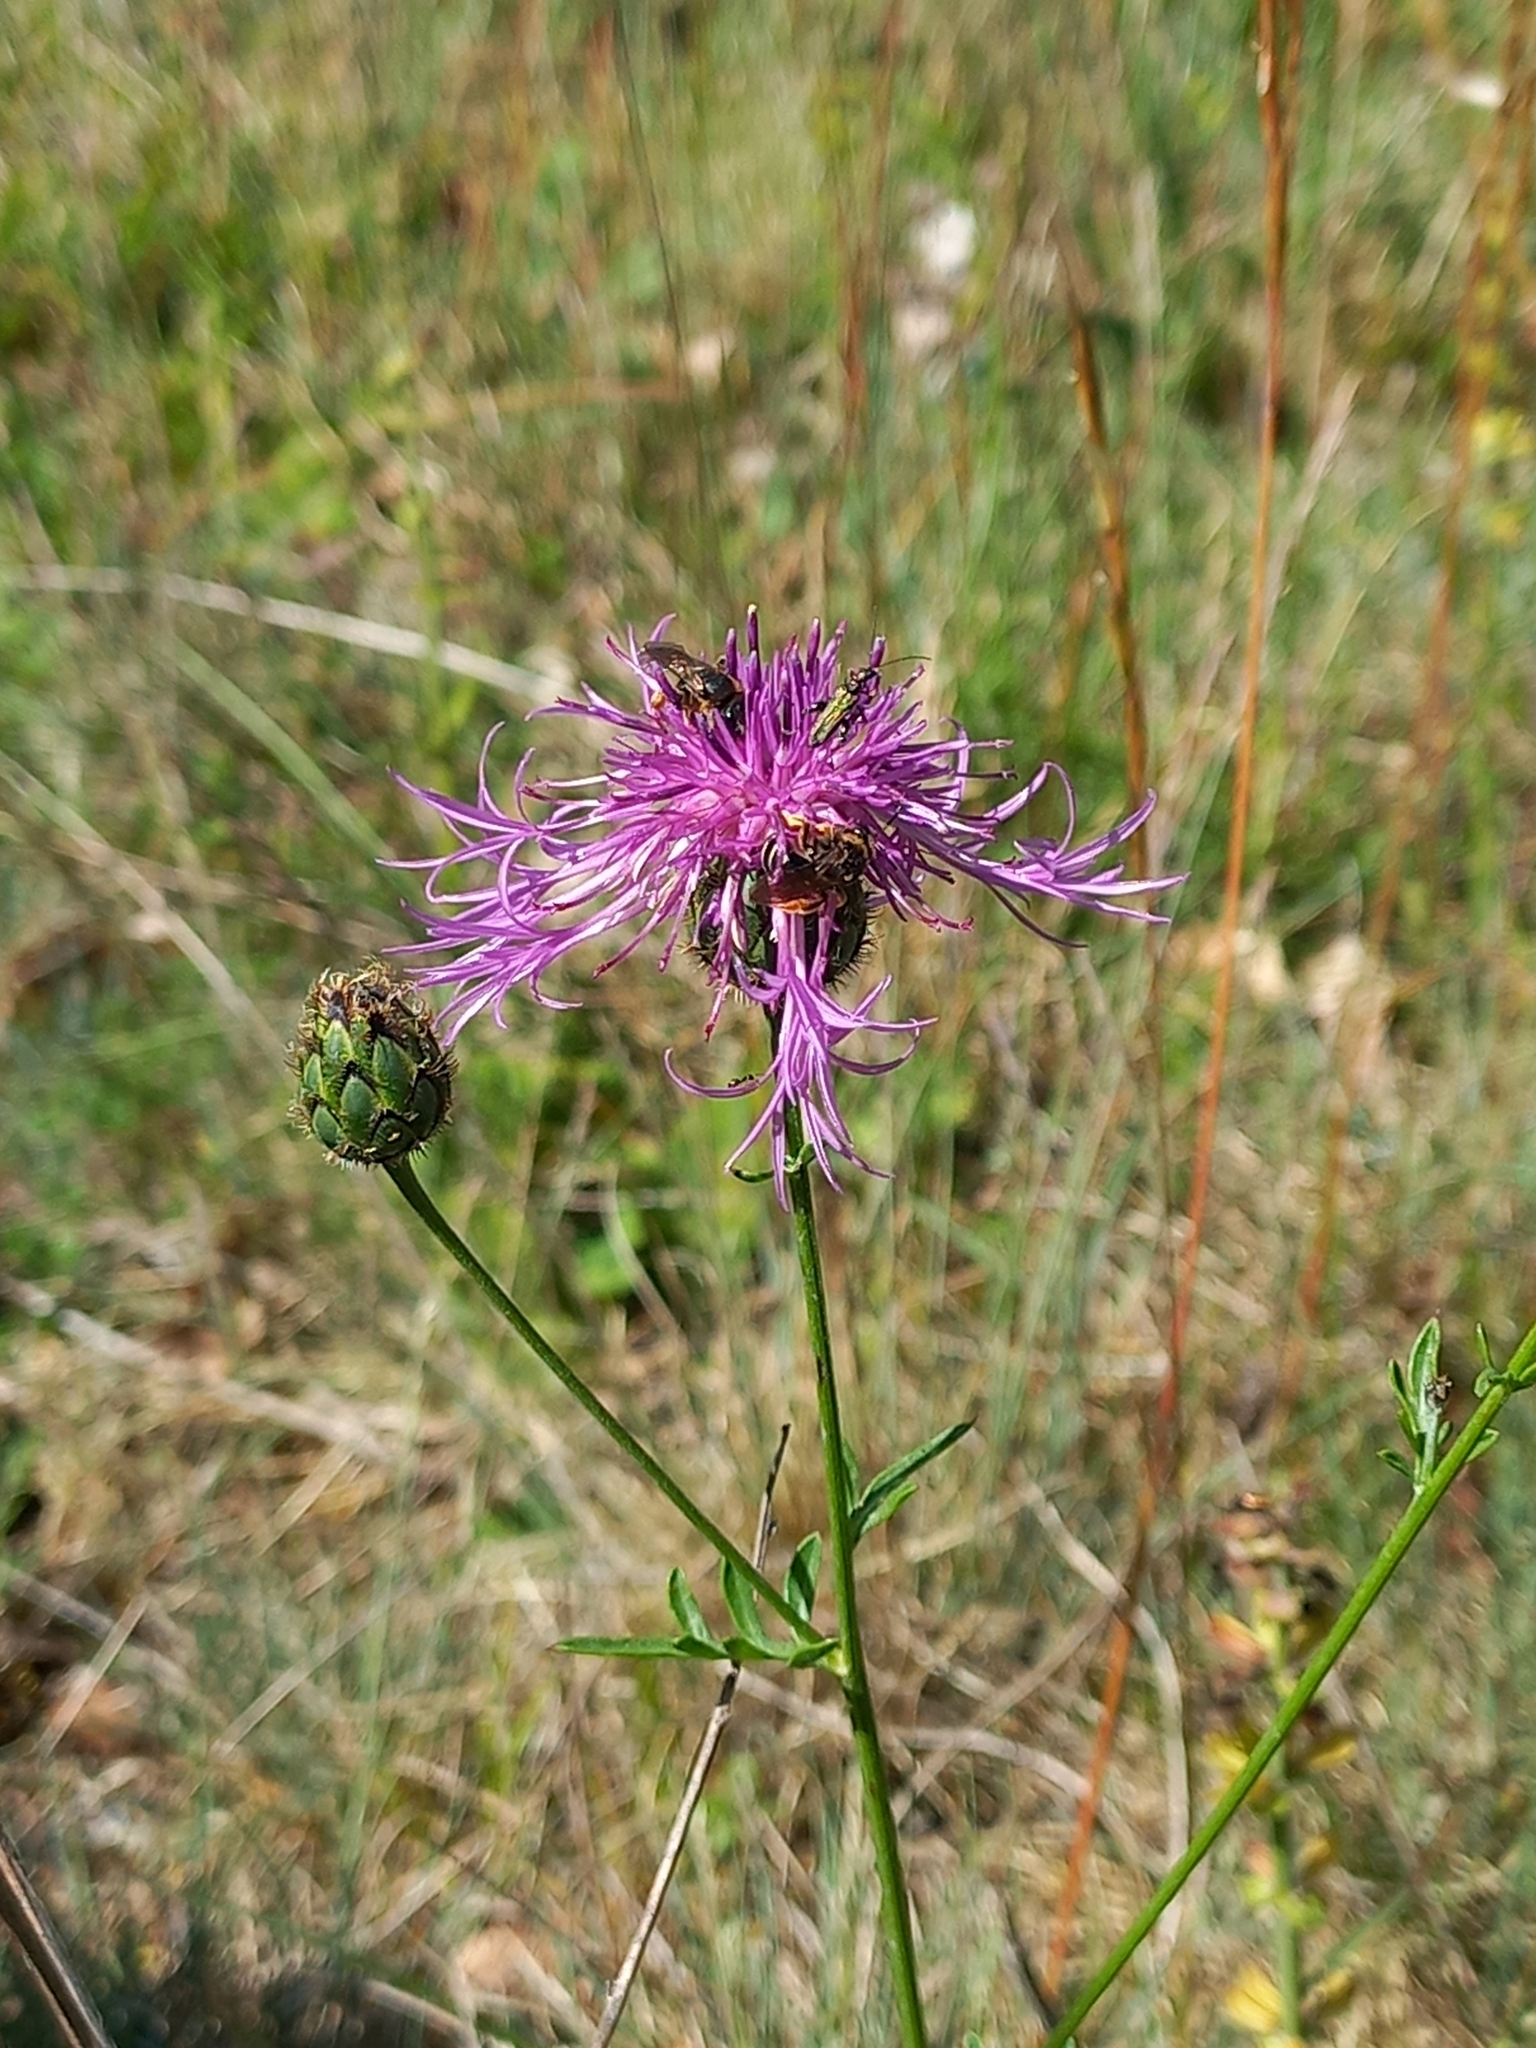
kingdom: Plantae
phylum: Tracheophyta
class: Magnoliopsida
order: Asterales
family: Asteraceae
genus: Centaurea
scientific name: Centaurea scabiosa
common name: Greater knapweed
